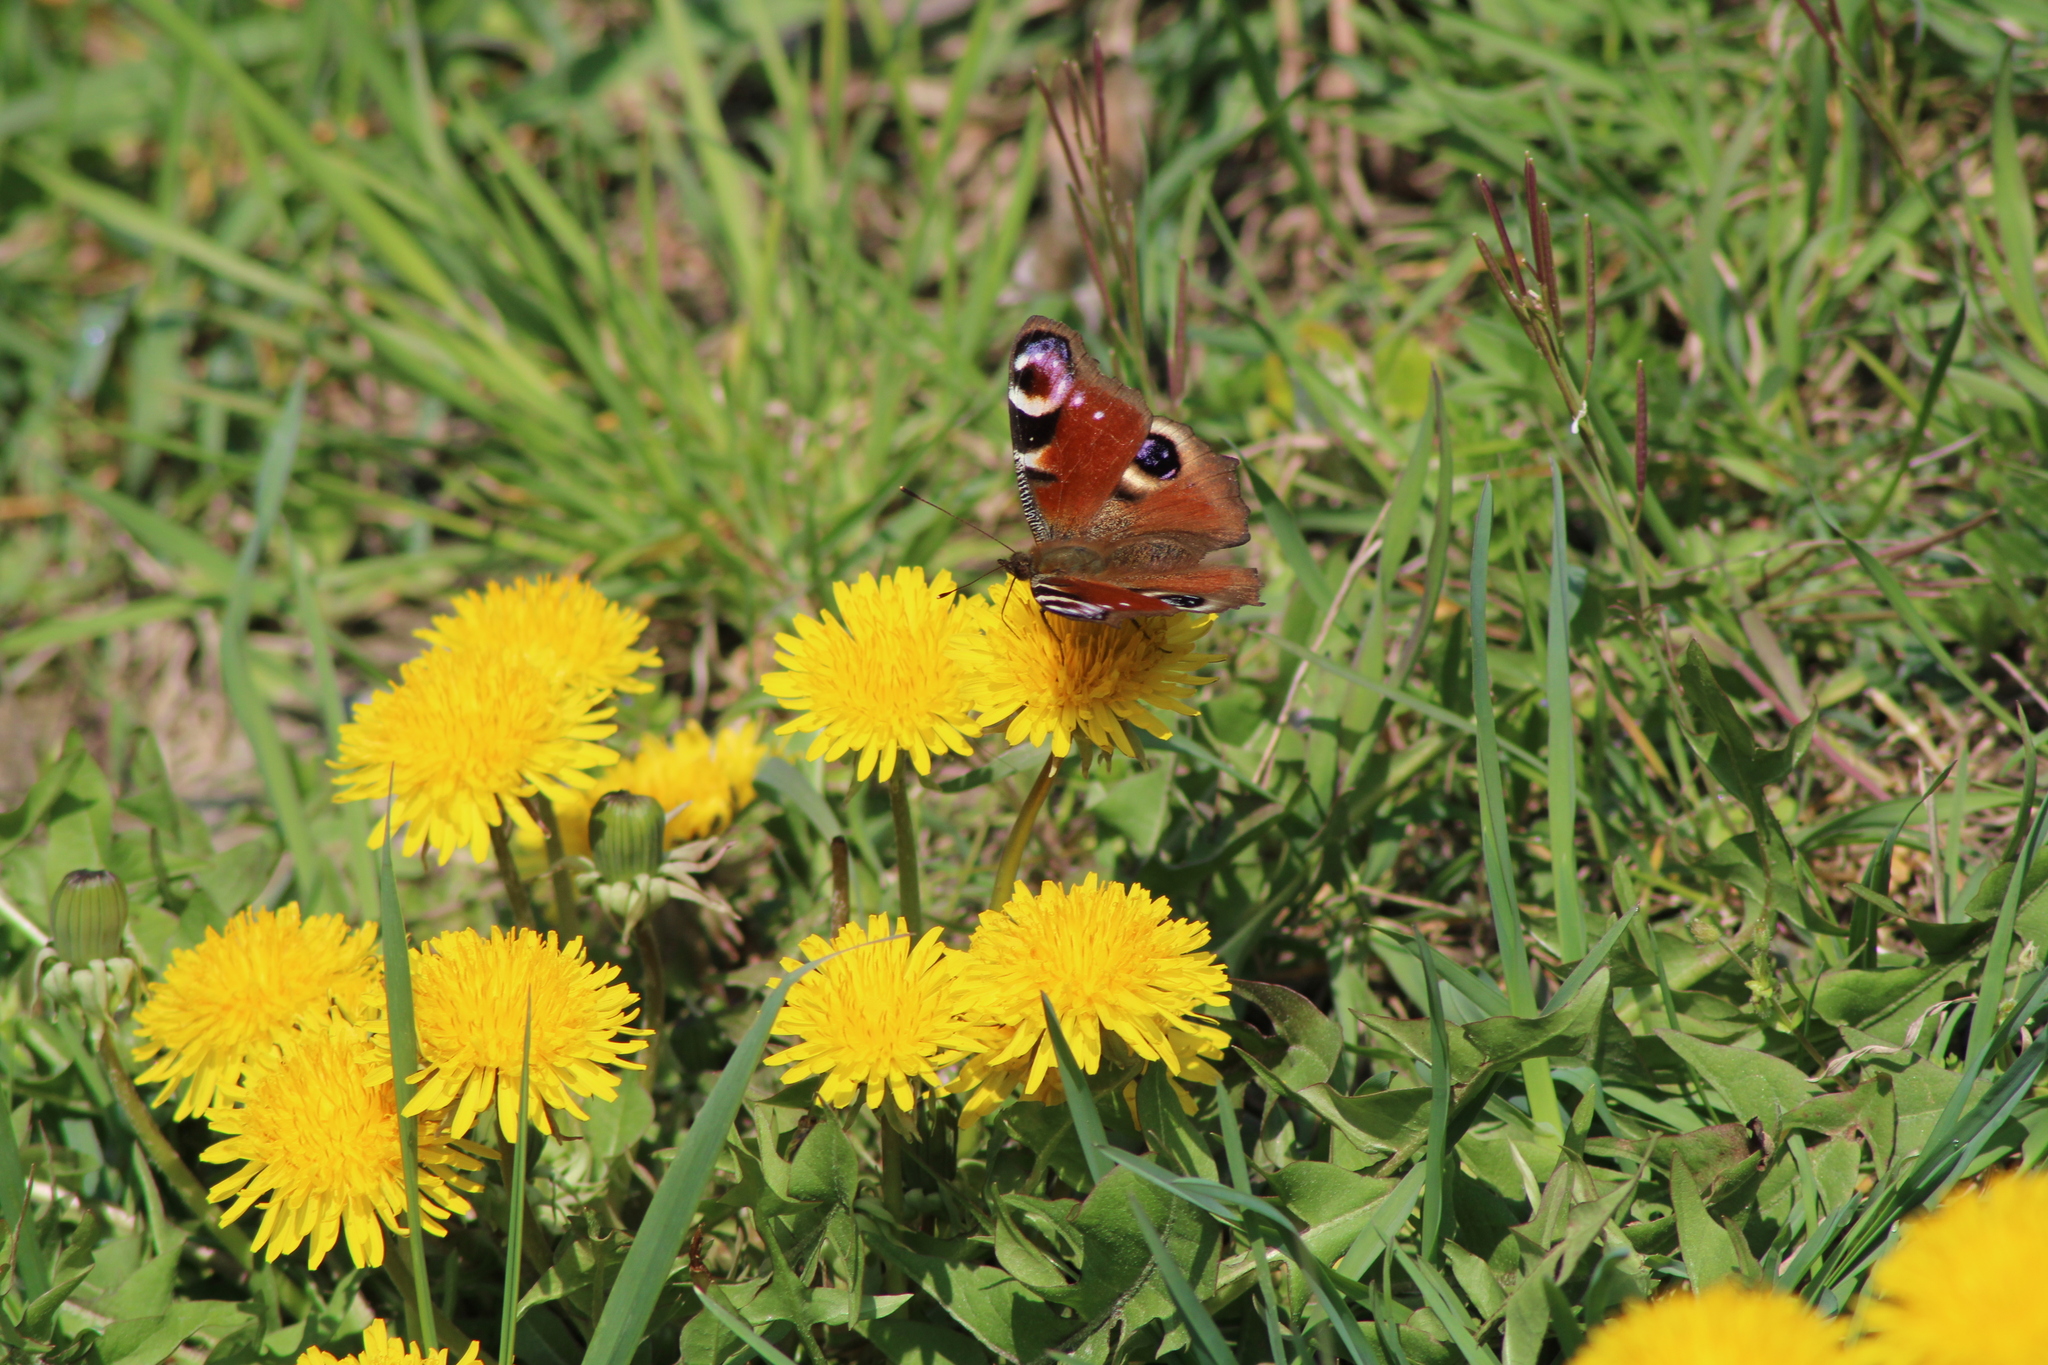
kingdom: Animalia
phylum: Arthropoda
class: Insecta
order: Lepidoptera
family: Nymphalidae
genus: Aglais
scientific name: Aglais io
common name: Peacock
